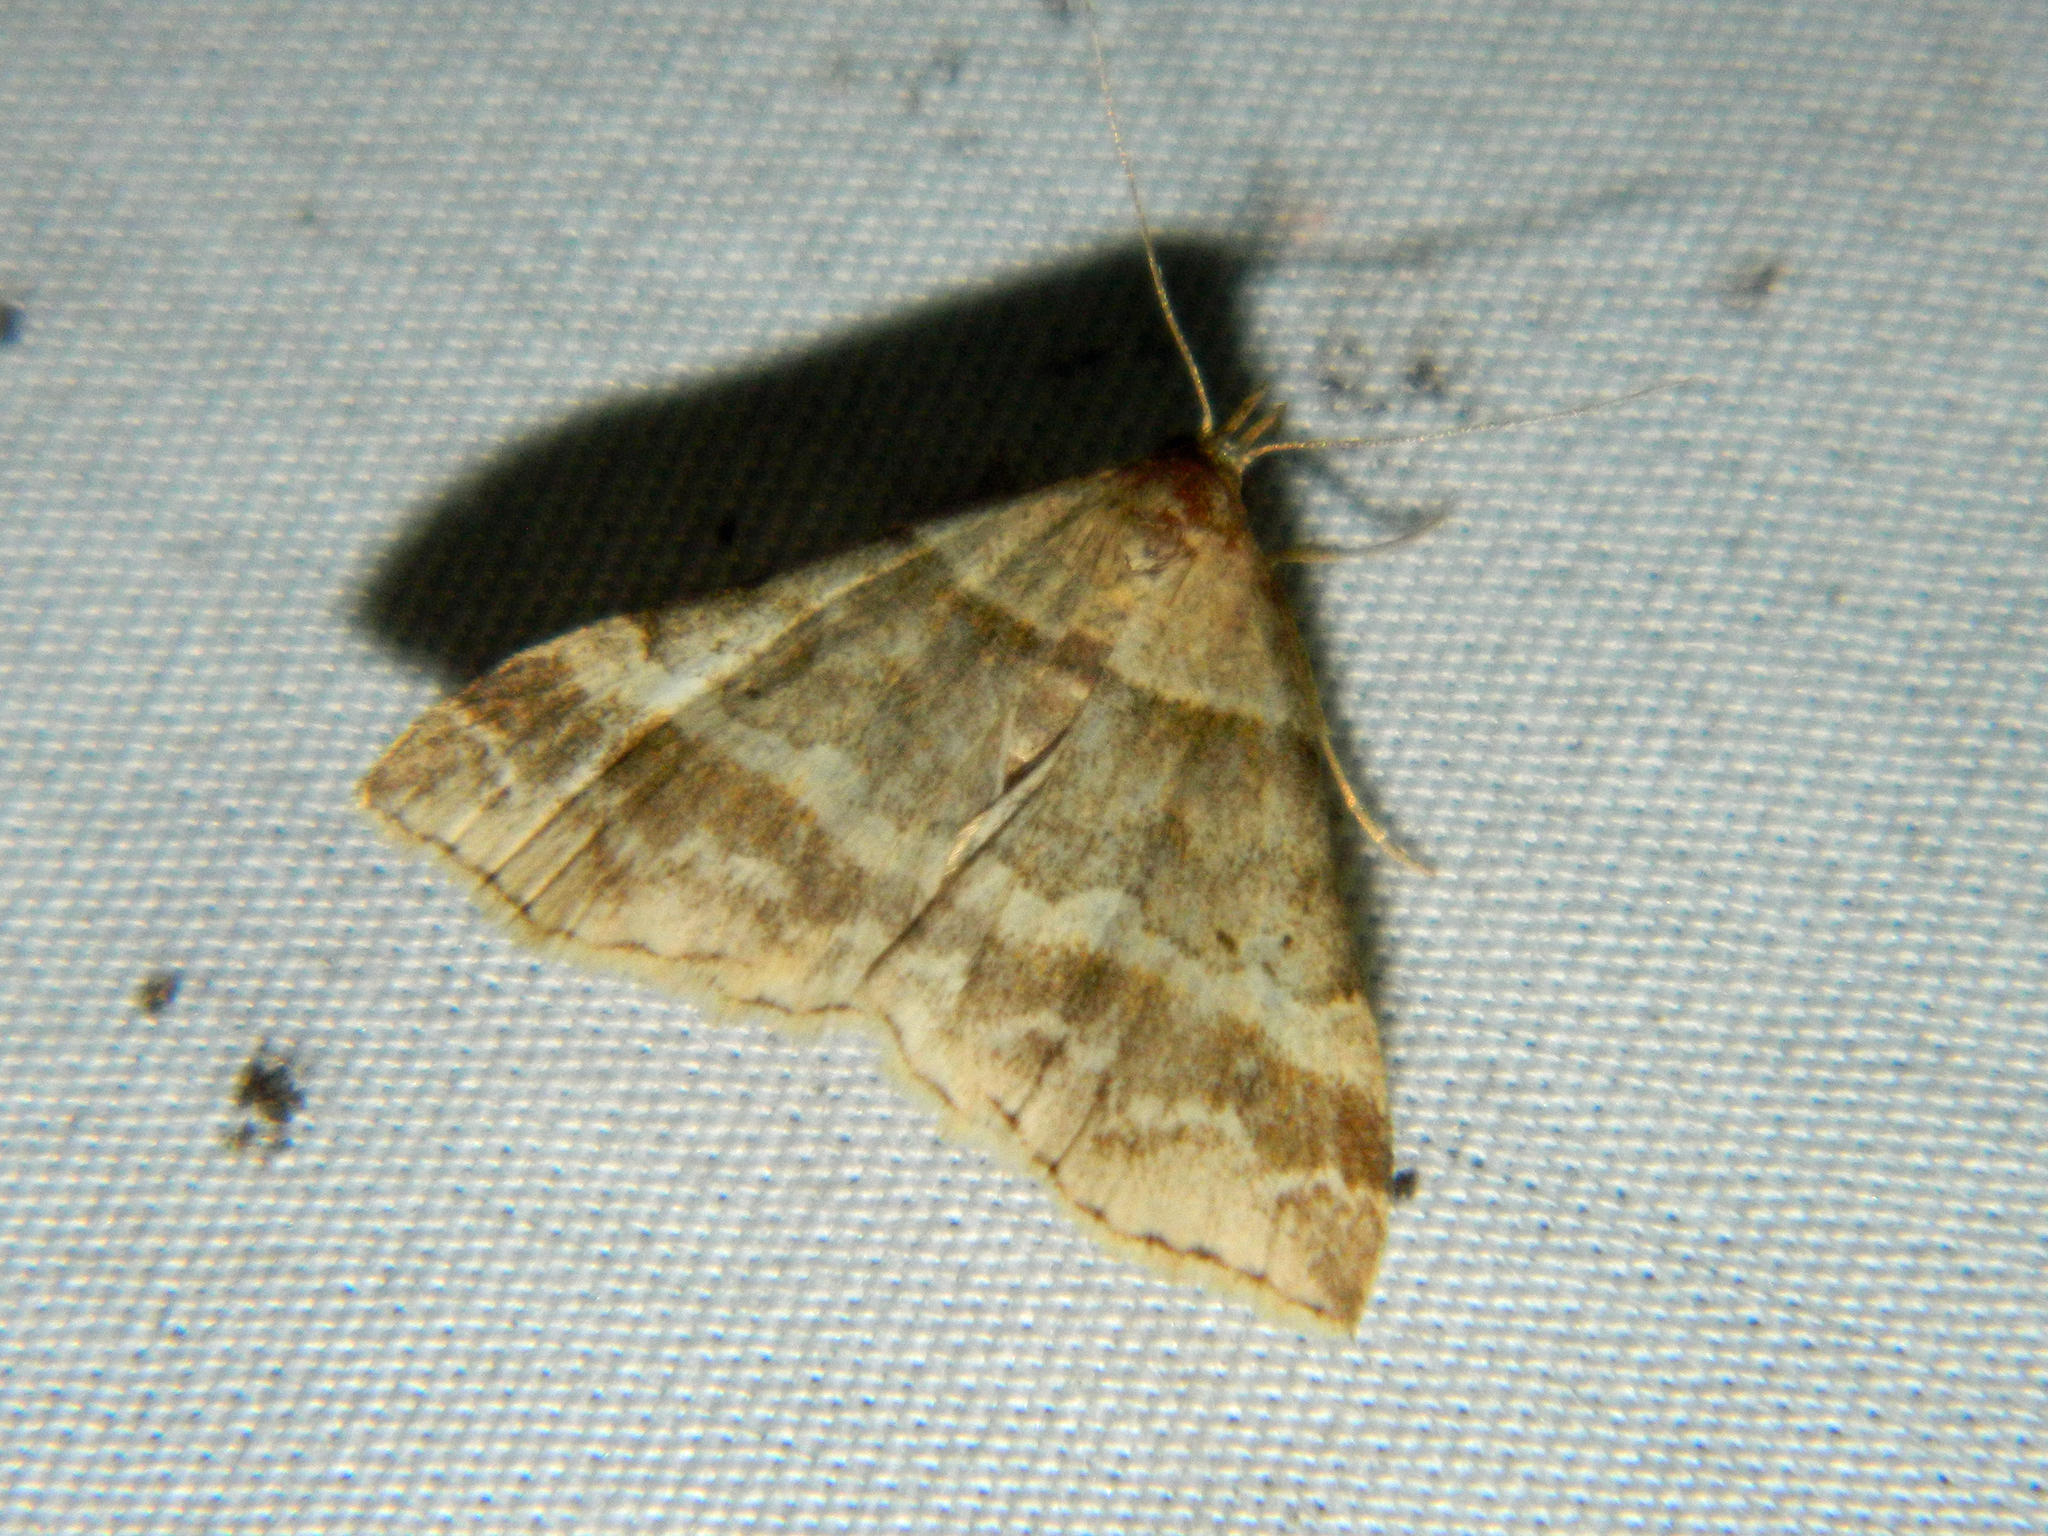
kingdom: Animalia
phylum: Arthropoda
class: Insecta
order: Lepidoptera
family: Erebidae
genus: Phaeolita
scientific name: Phaeolita pyramusalis
